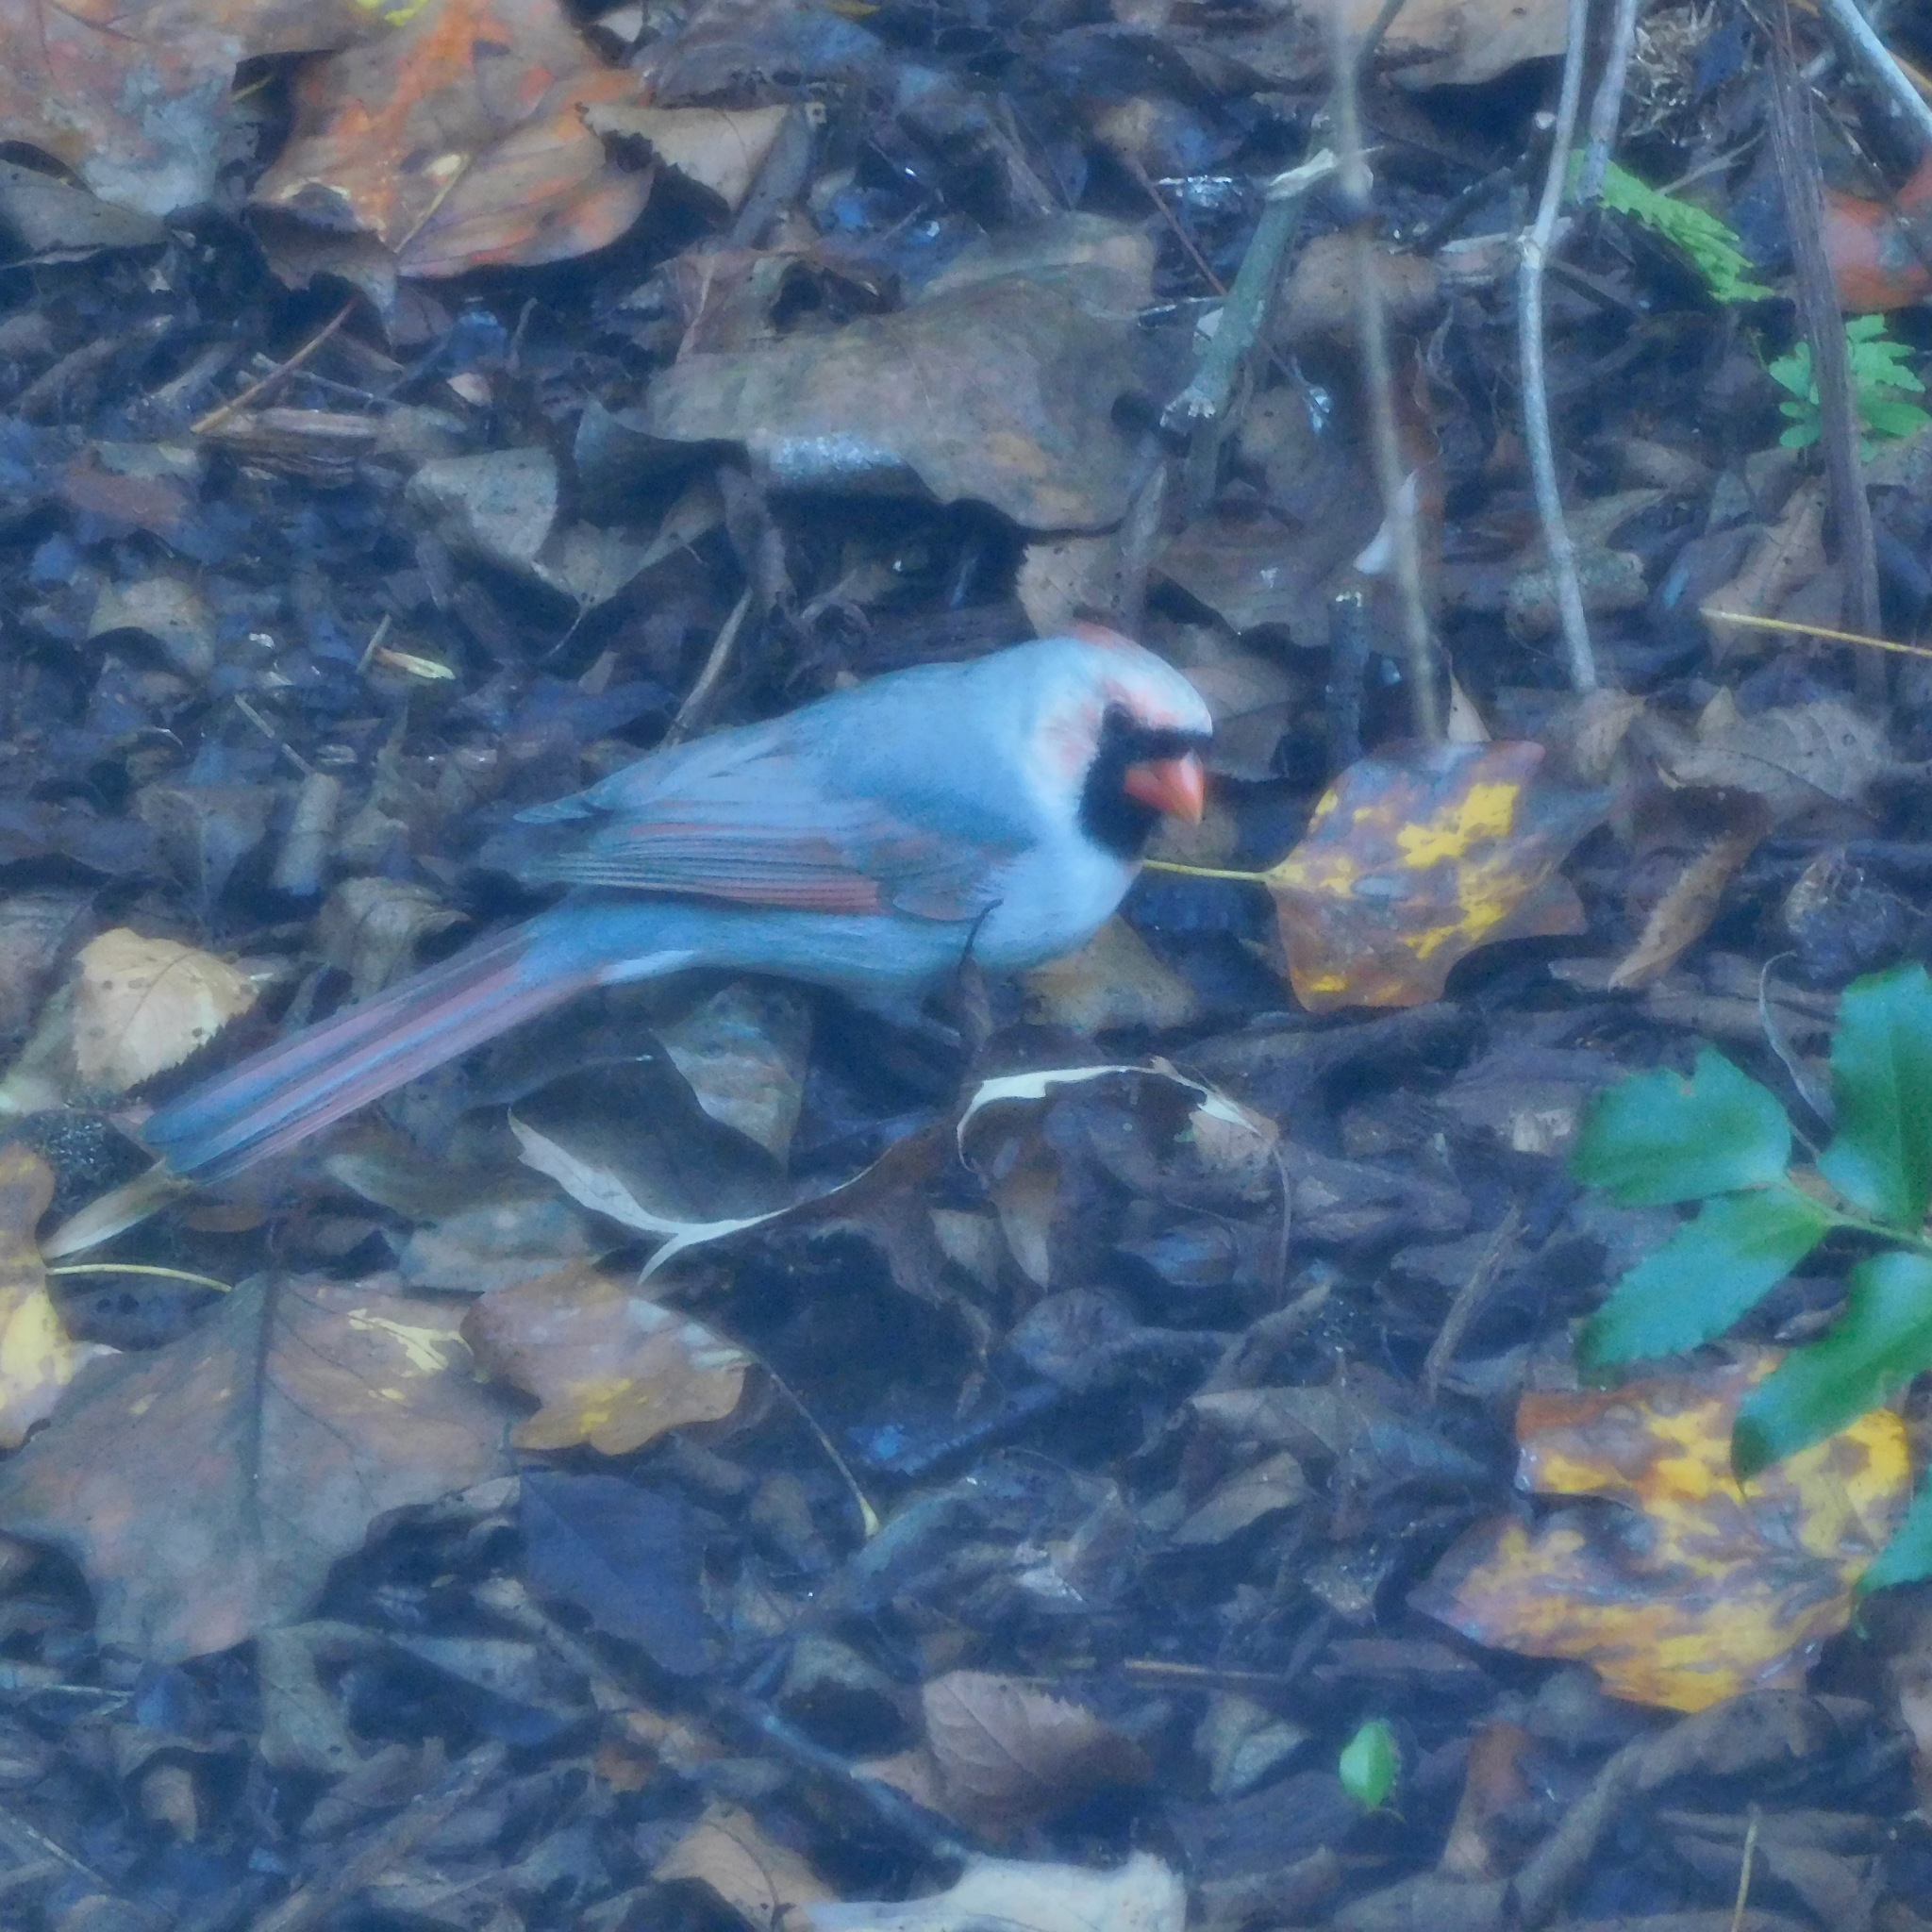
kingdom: Animalia
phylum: Chordata
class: Aves
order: Passeriformes
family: Cardinalidae
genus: Cardinalis
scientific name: Cardinalis cardinalis
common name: Northern cardinal
